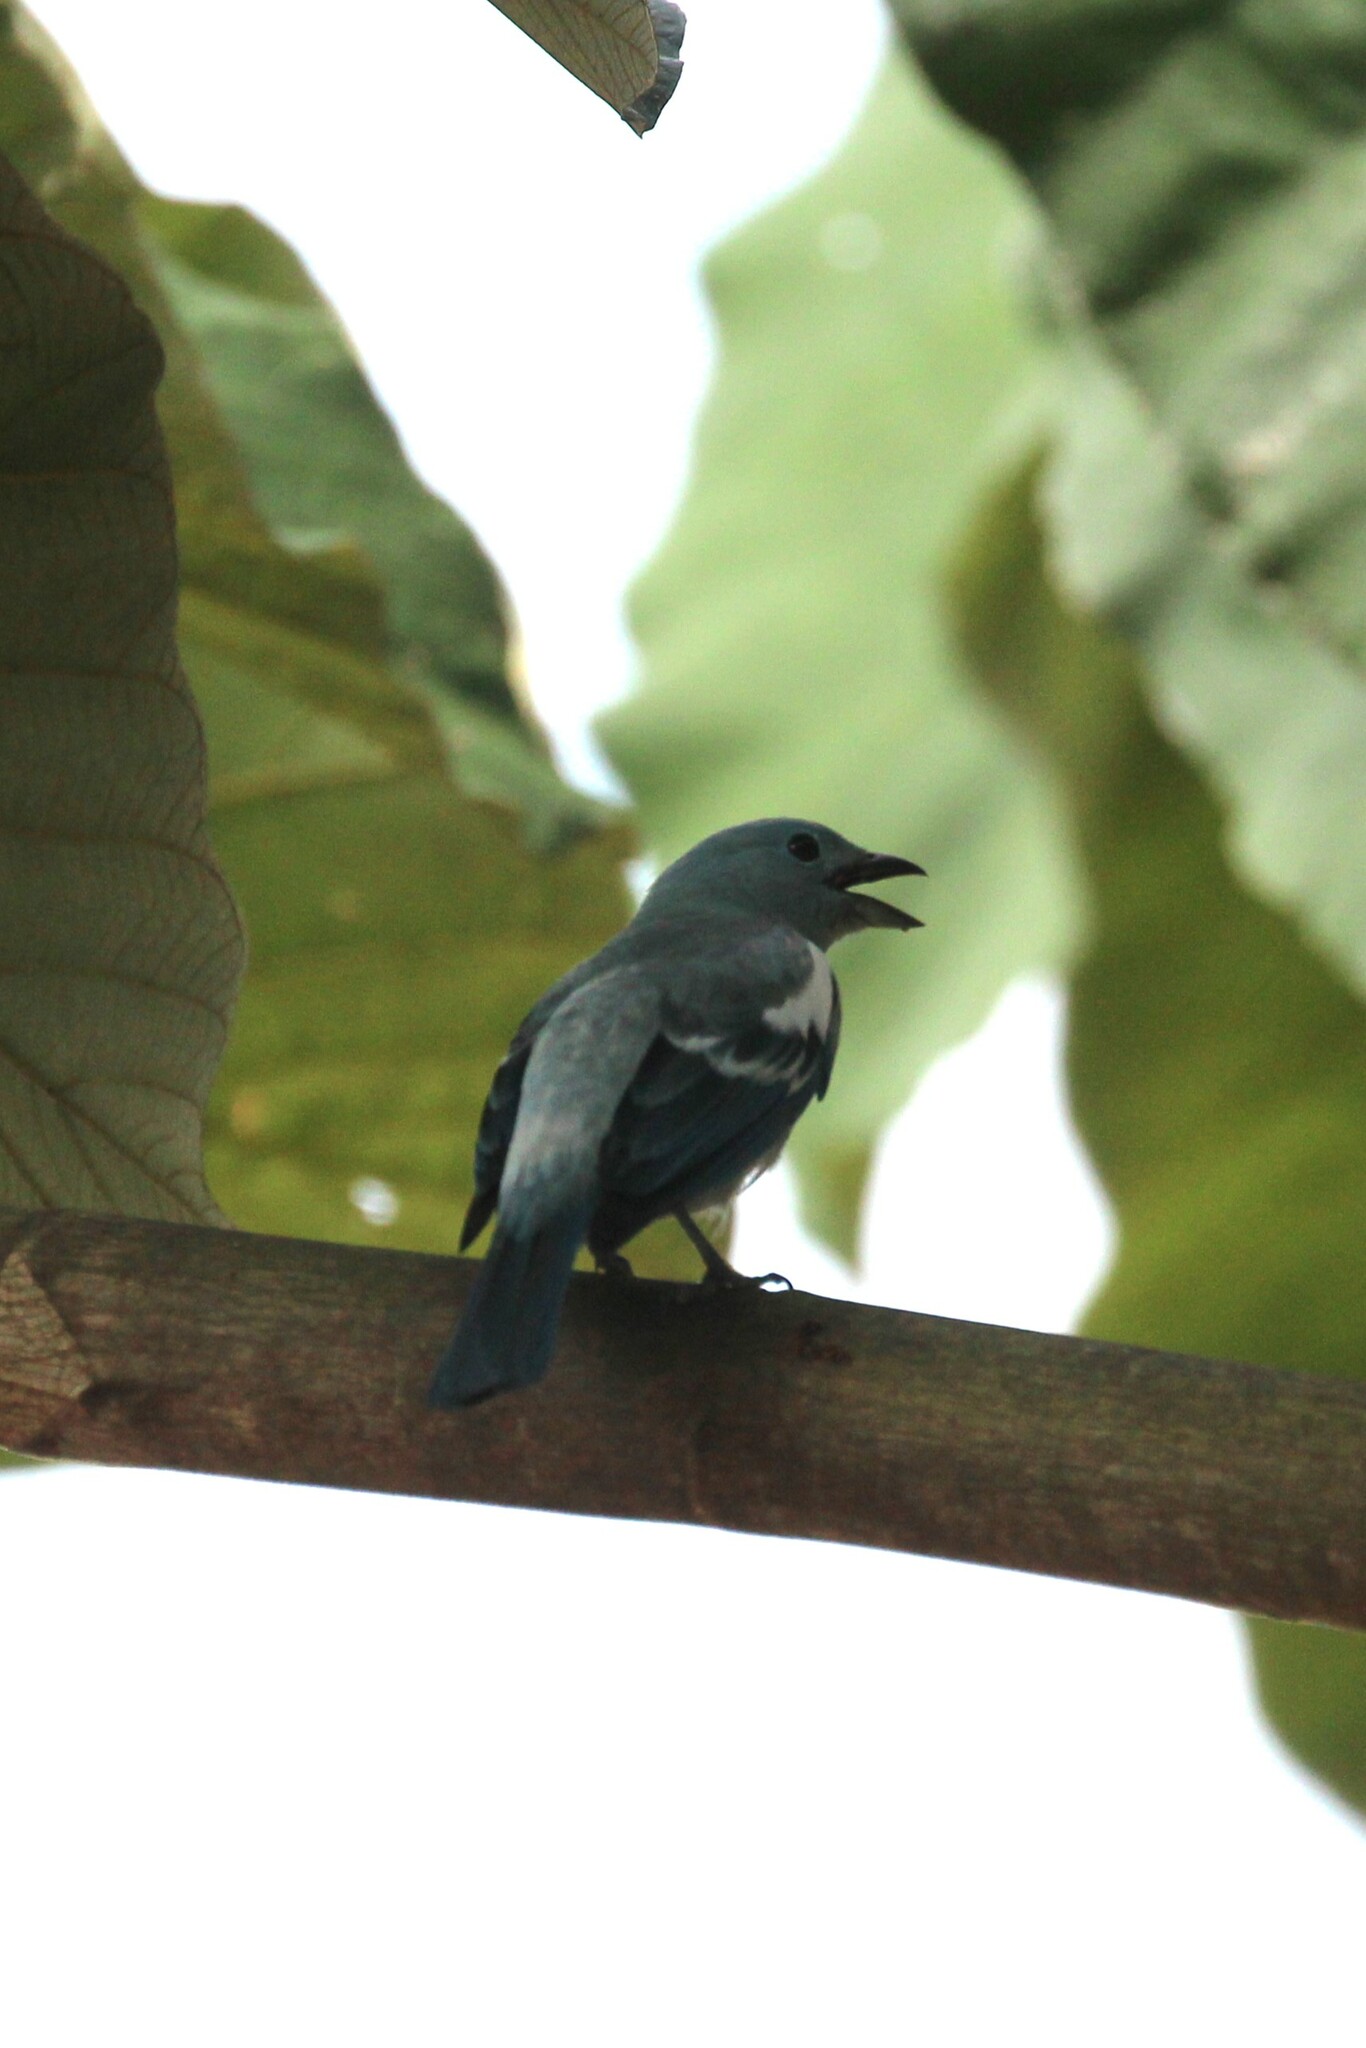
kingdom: Animalia
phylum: Chordata
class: Aves
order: Passeriformes
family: Thraupidae
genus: Thraupis
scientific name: Thraupis episcopus
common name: Blue-grey tanager
